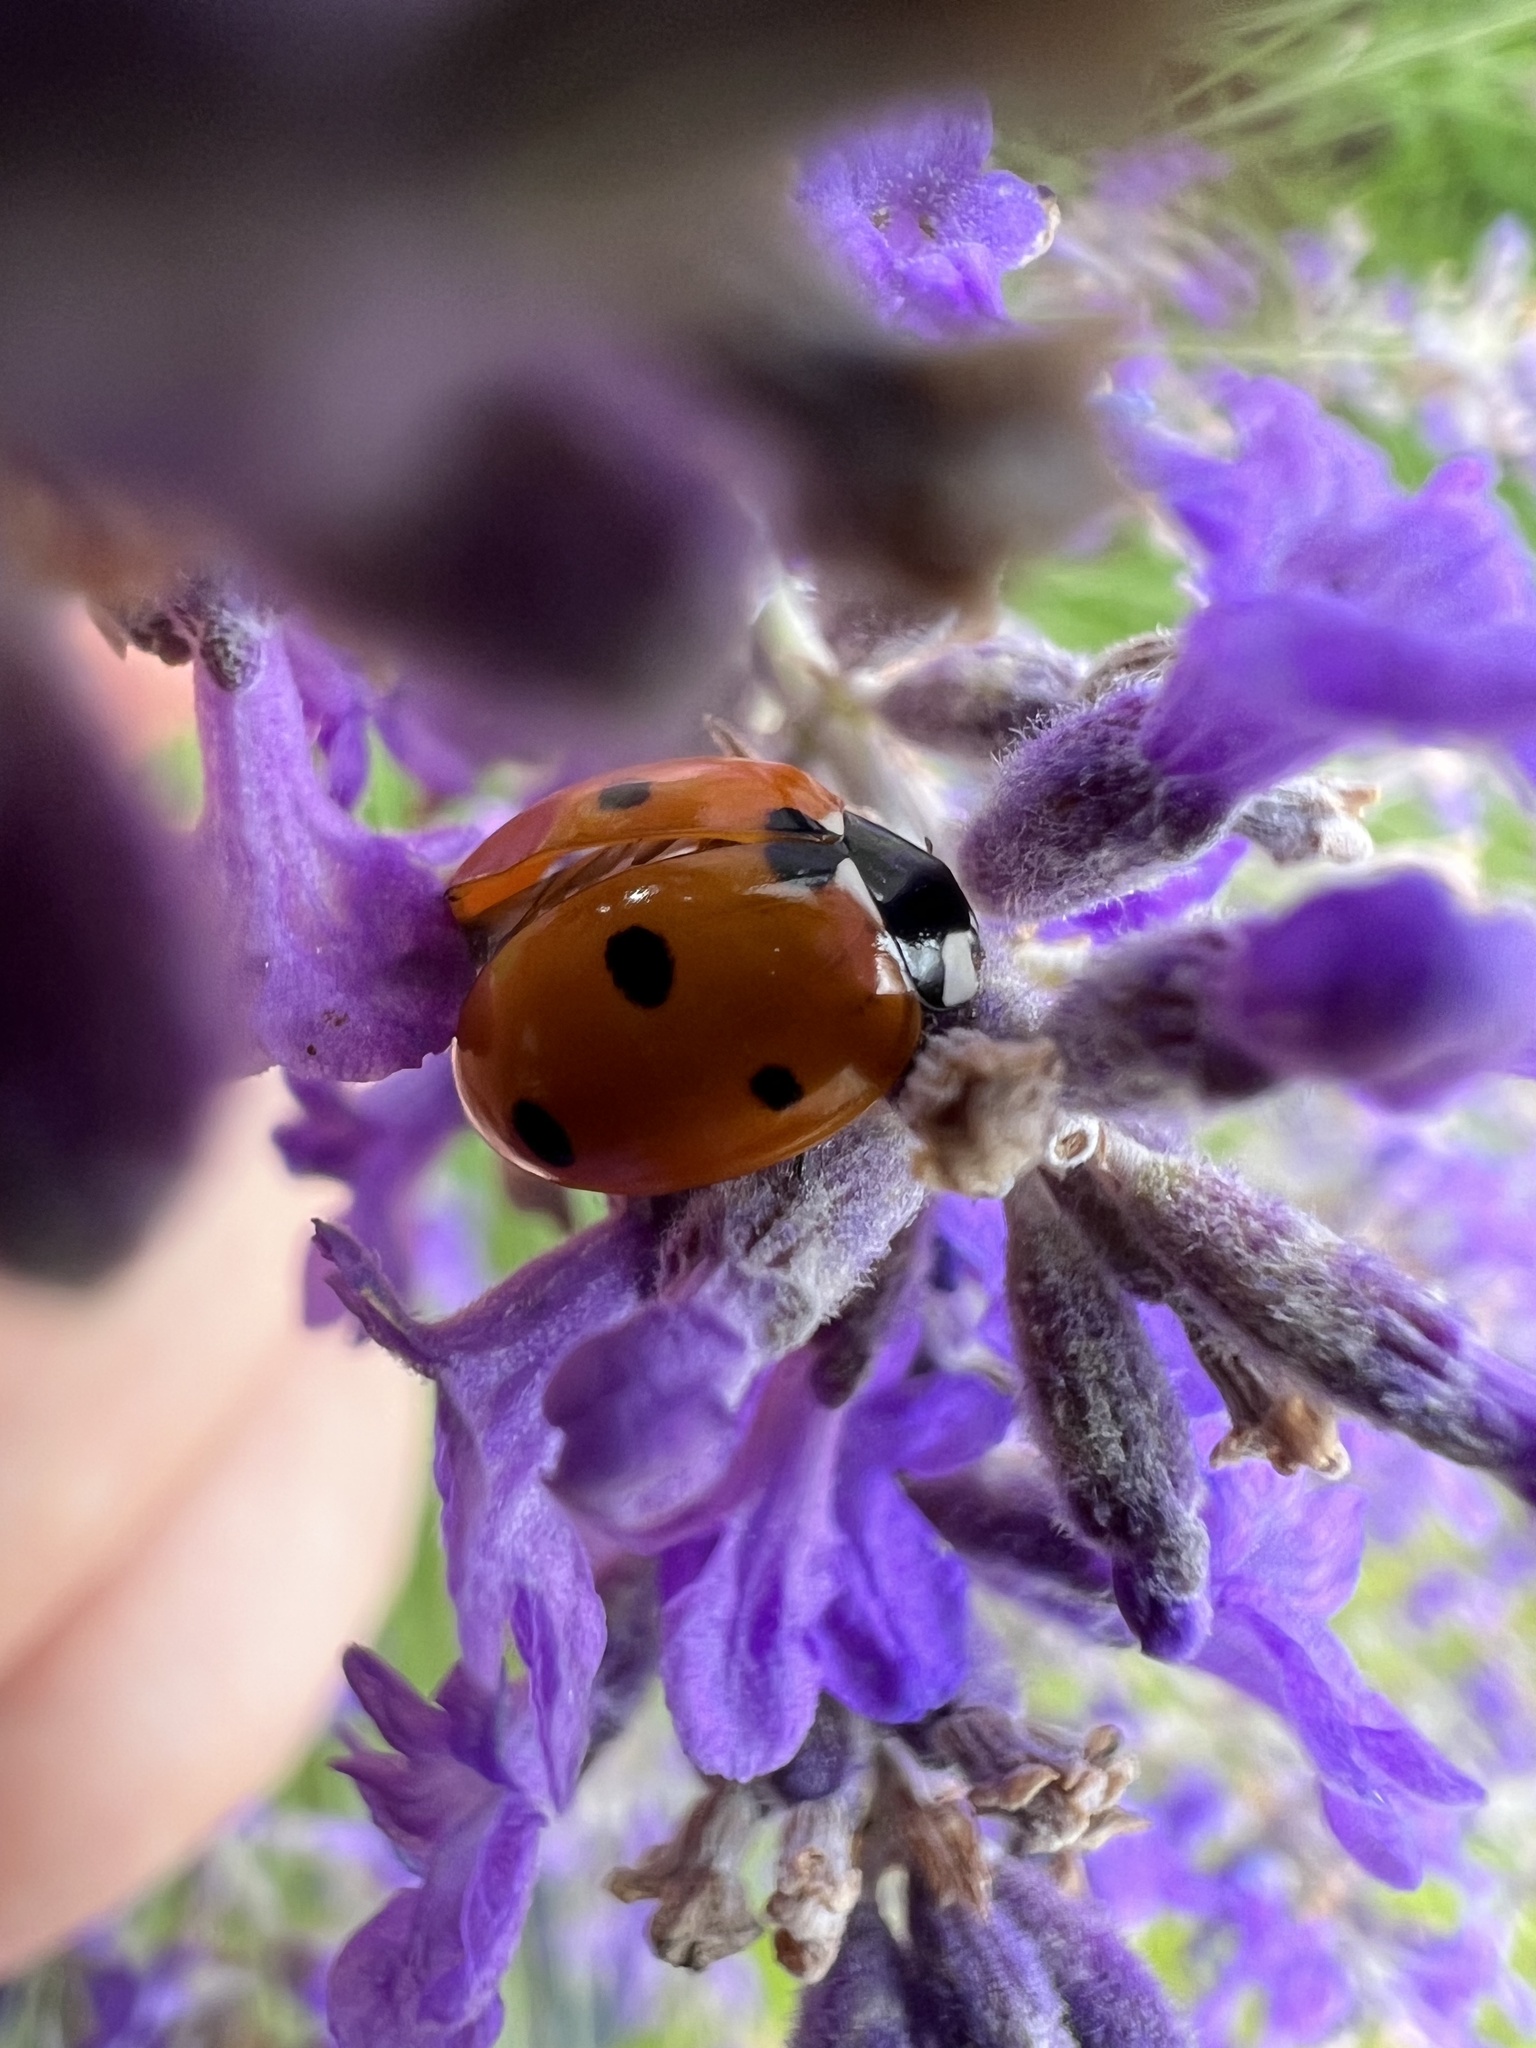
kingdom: Animalia
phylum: Arthropoda
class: Insecta
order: Coleoptera
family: Coccinellidae
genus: Coccinella
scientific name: Coccinella septempunctata
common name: Sevenspotted lady beetle
